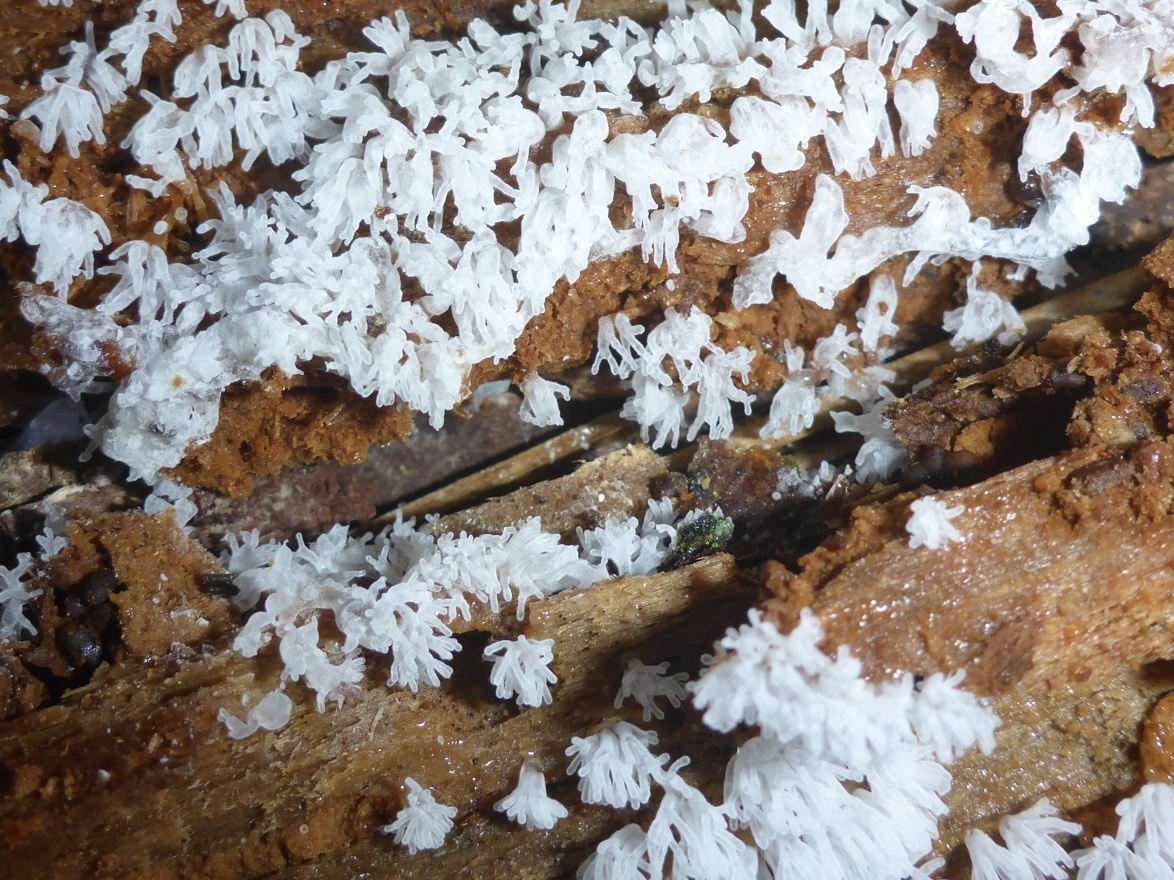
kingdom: Protozoa
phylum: Mycetozoa
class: Protosteliomycetes
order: Ceratiomyxales
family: Ceratiomyxaceae
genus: Ceratiomyxa
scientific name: Ceratiomyxa fruticulosa
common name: Honeycomb coral slime mold
